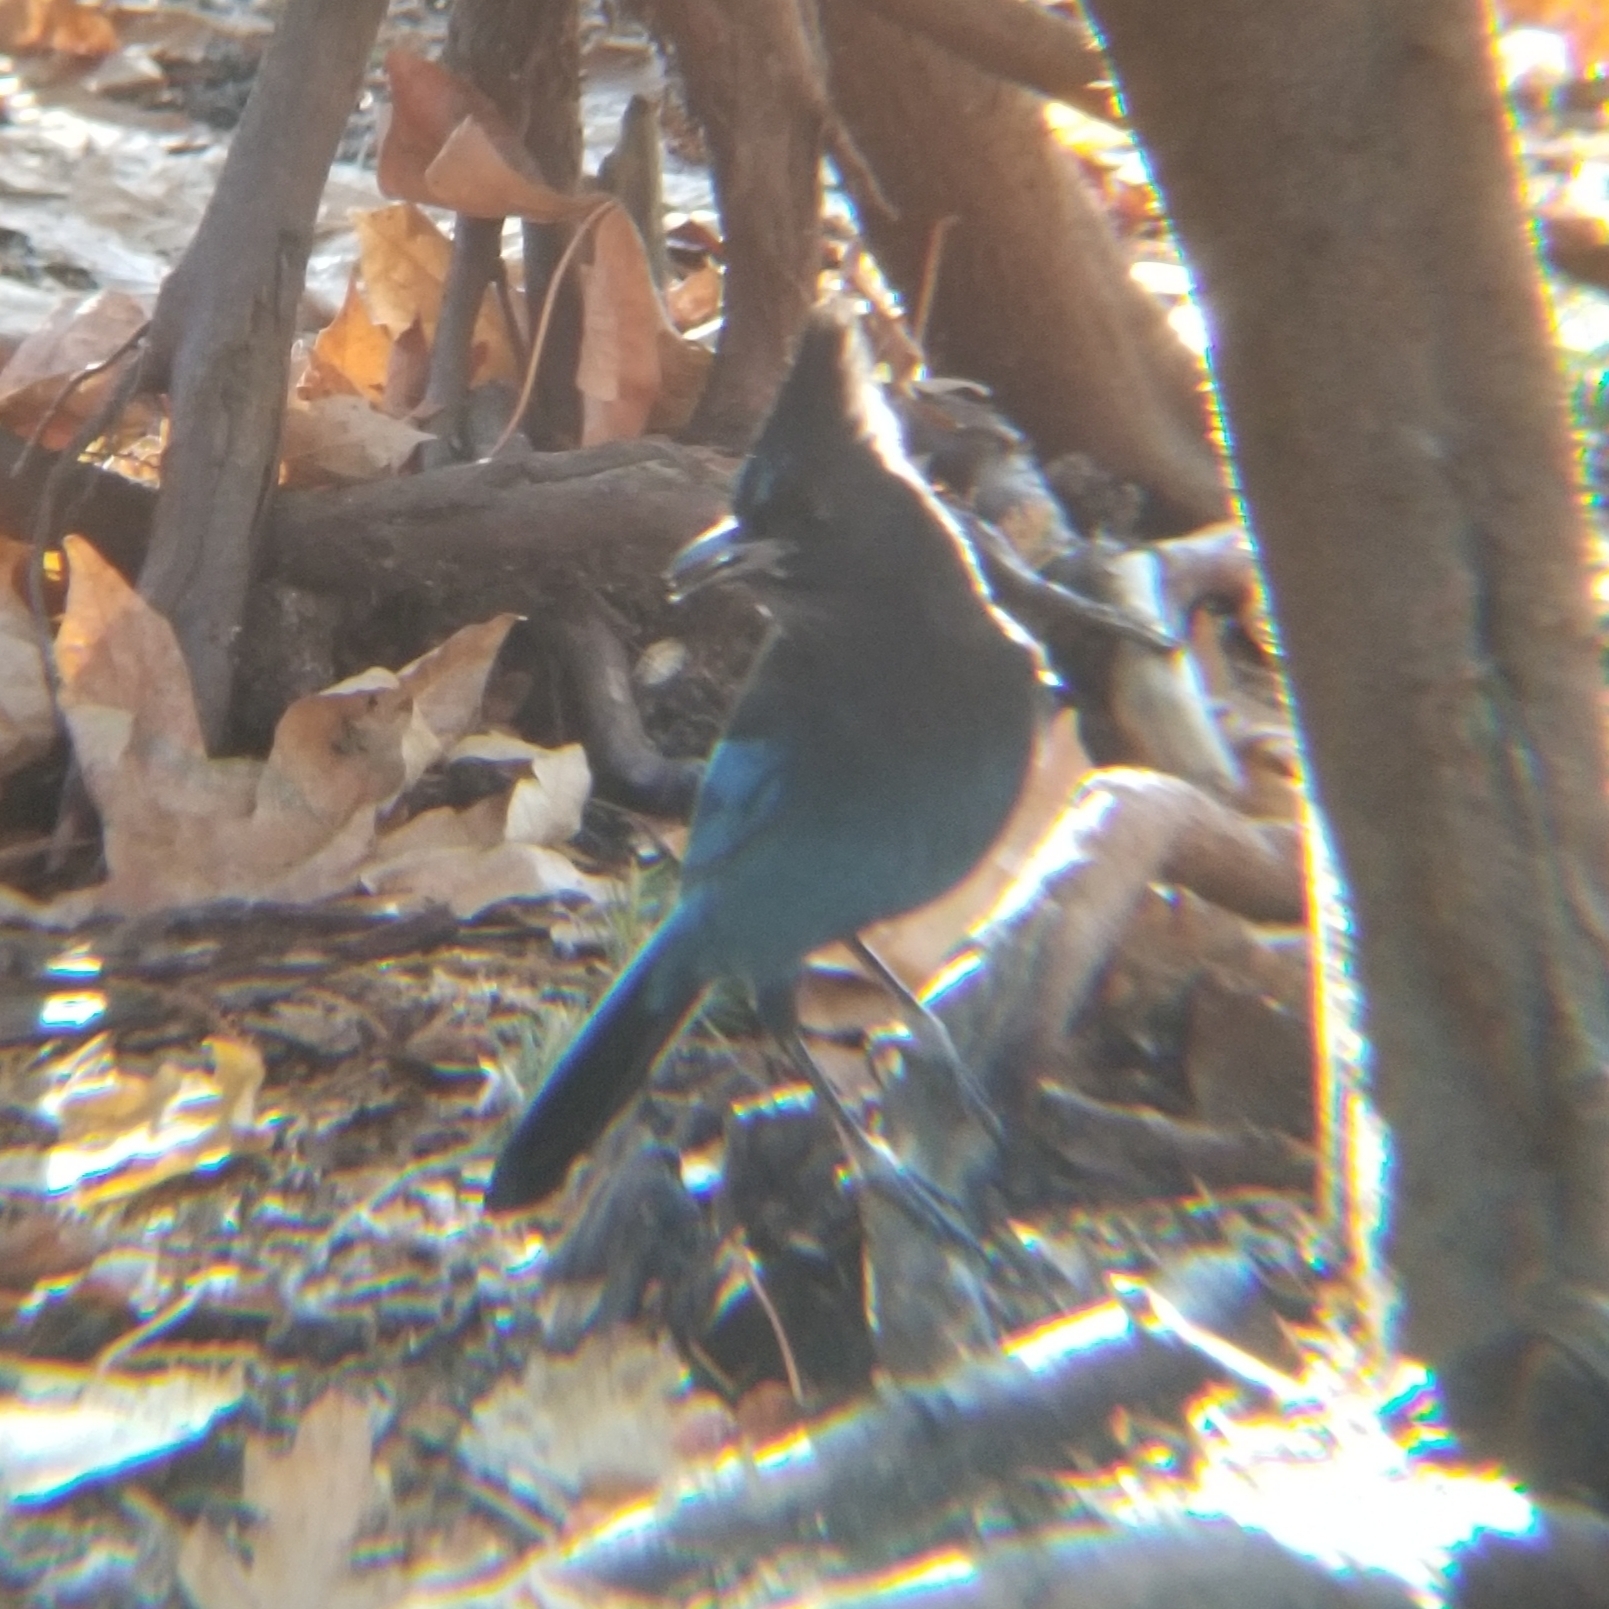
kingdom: Animalia
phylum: Chordata
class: Aves
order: Passeriformes
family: Corvidae
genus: Cyanocitta
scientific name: Cyanocitta stelleri
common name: Steller's jay
